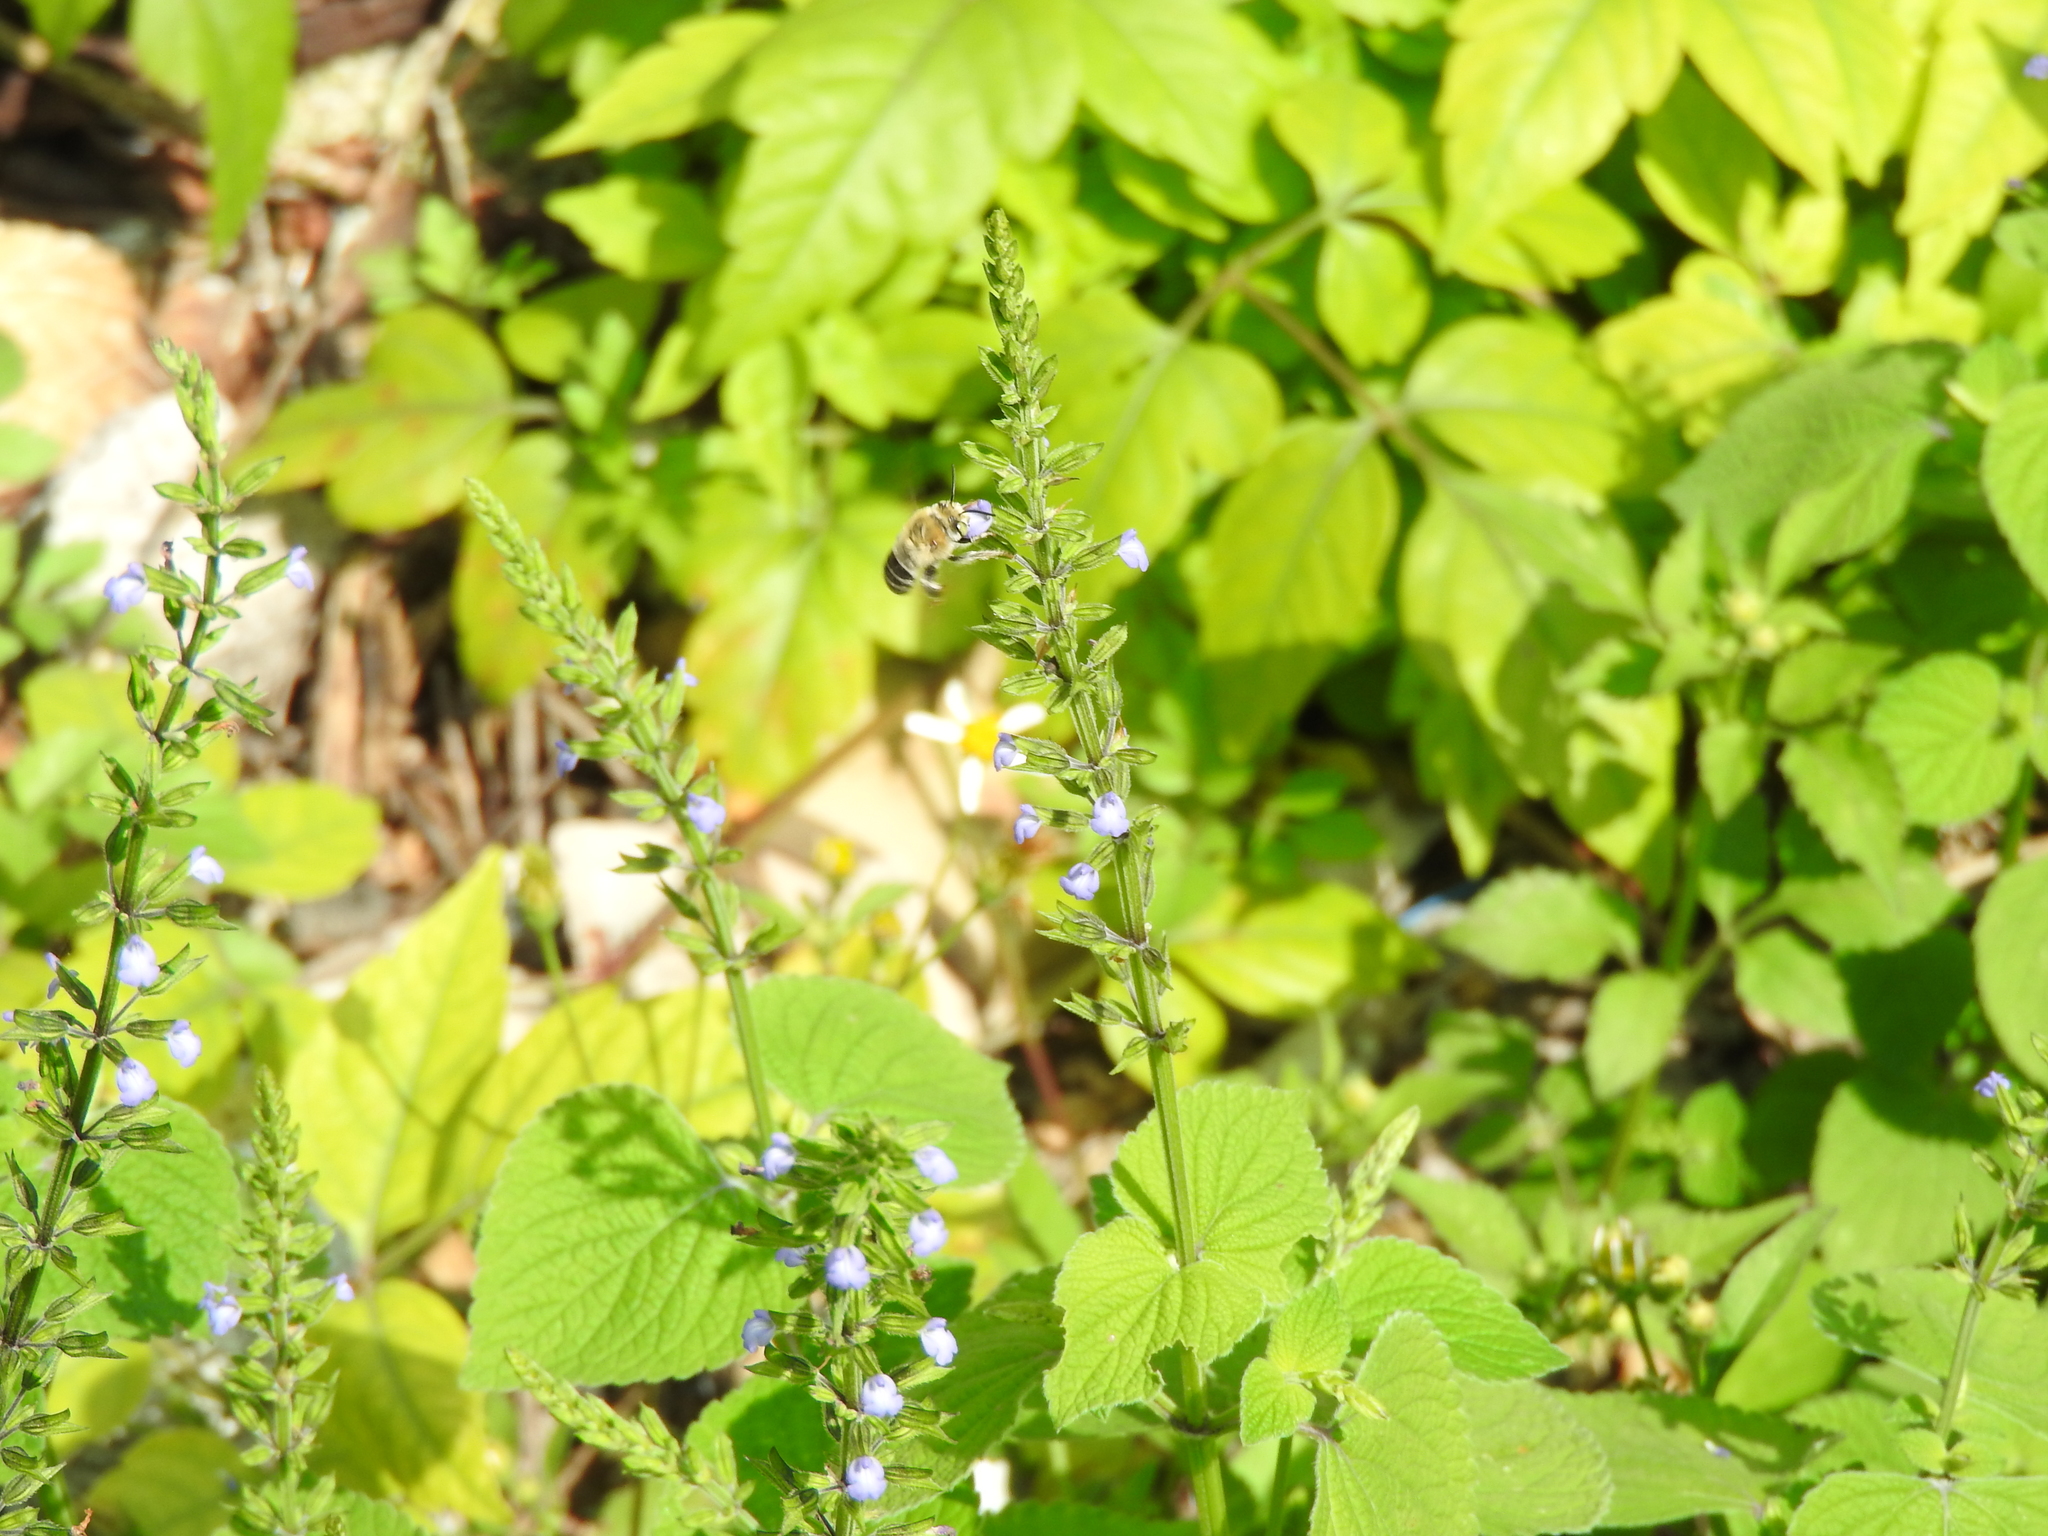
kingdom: Plantae
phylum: Tracheophyta
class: Magnoliopsida
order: Lamiales
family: Lamiaceae
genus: Salvia
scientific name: Salvia tiliifolia
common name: Lindenleaf sage
